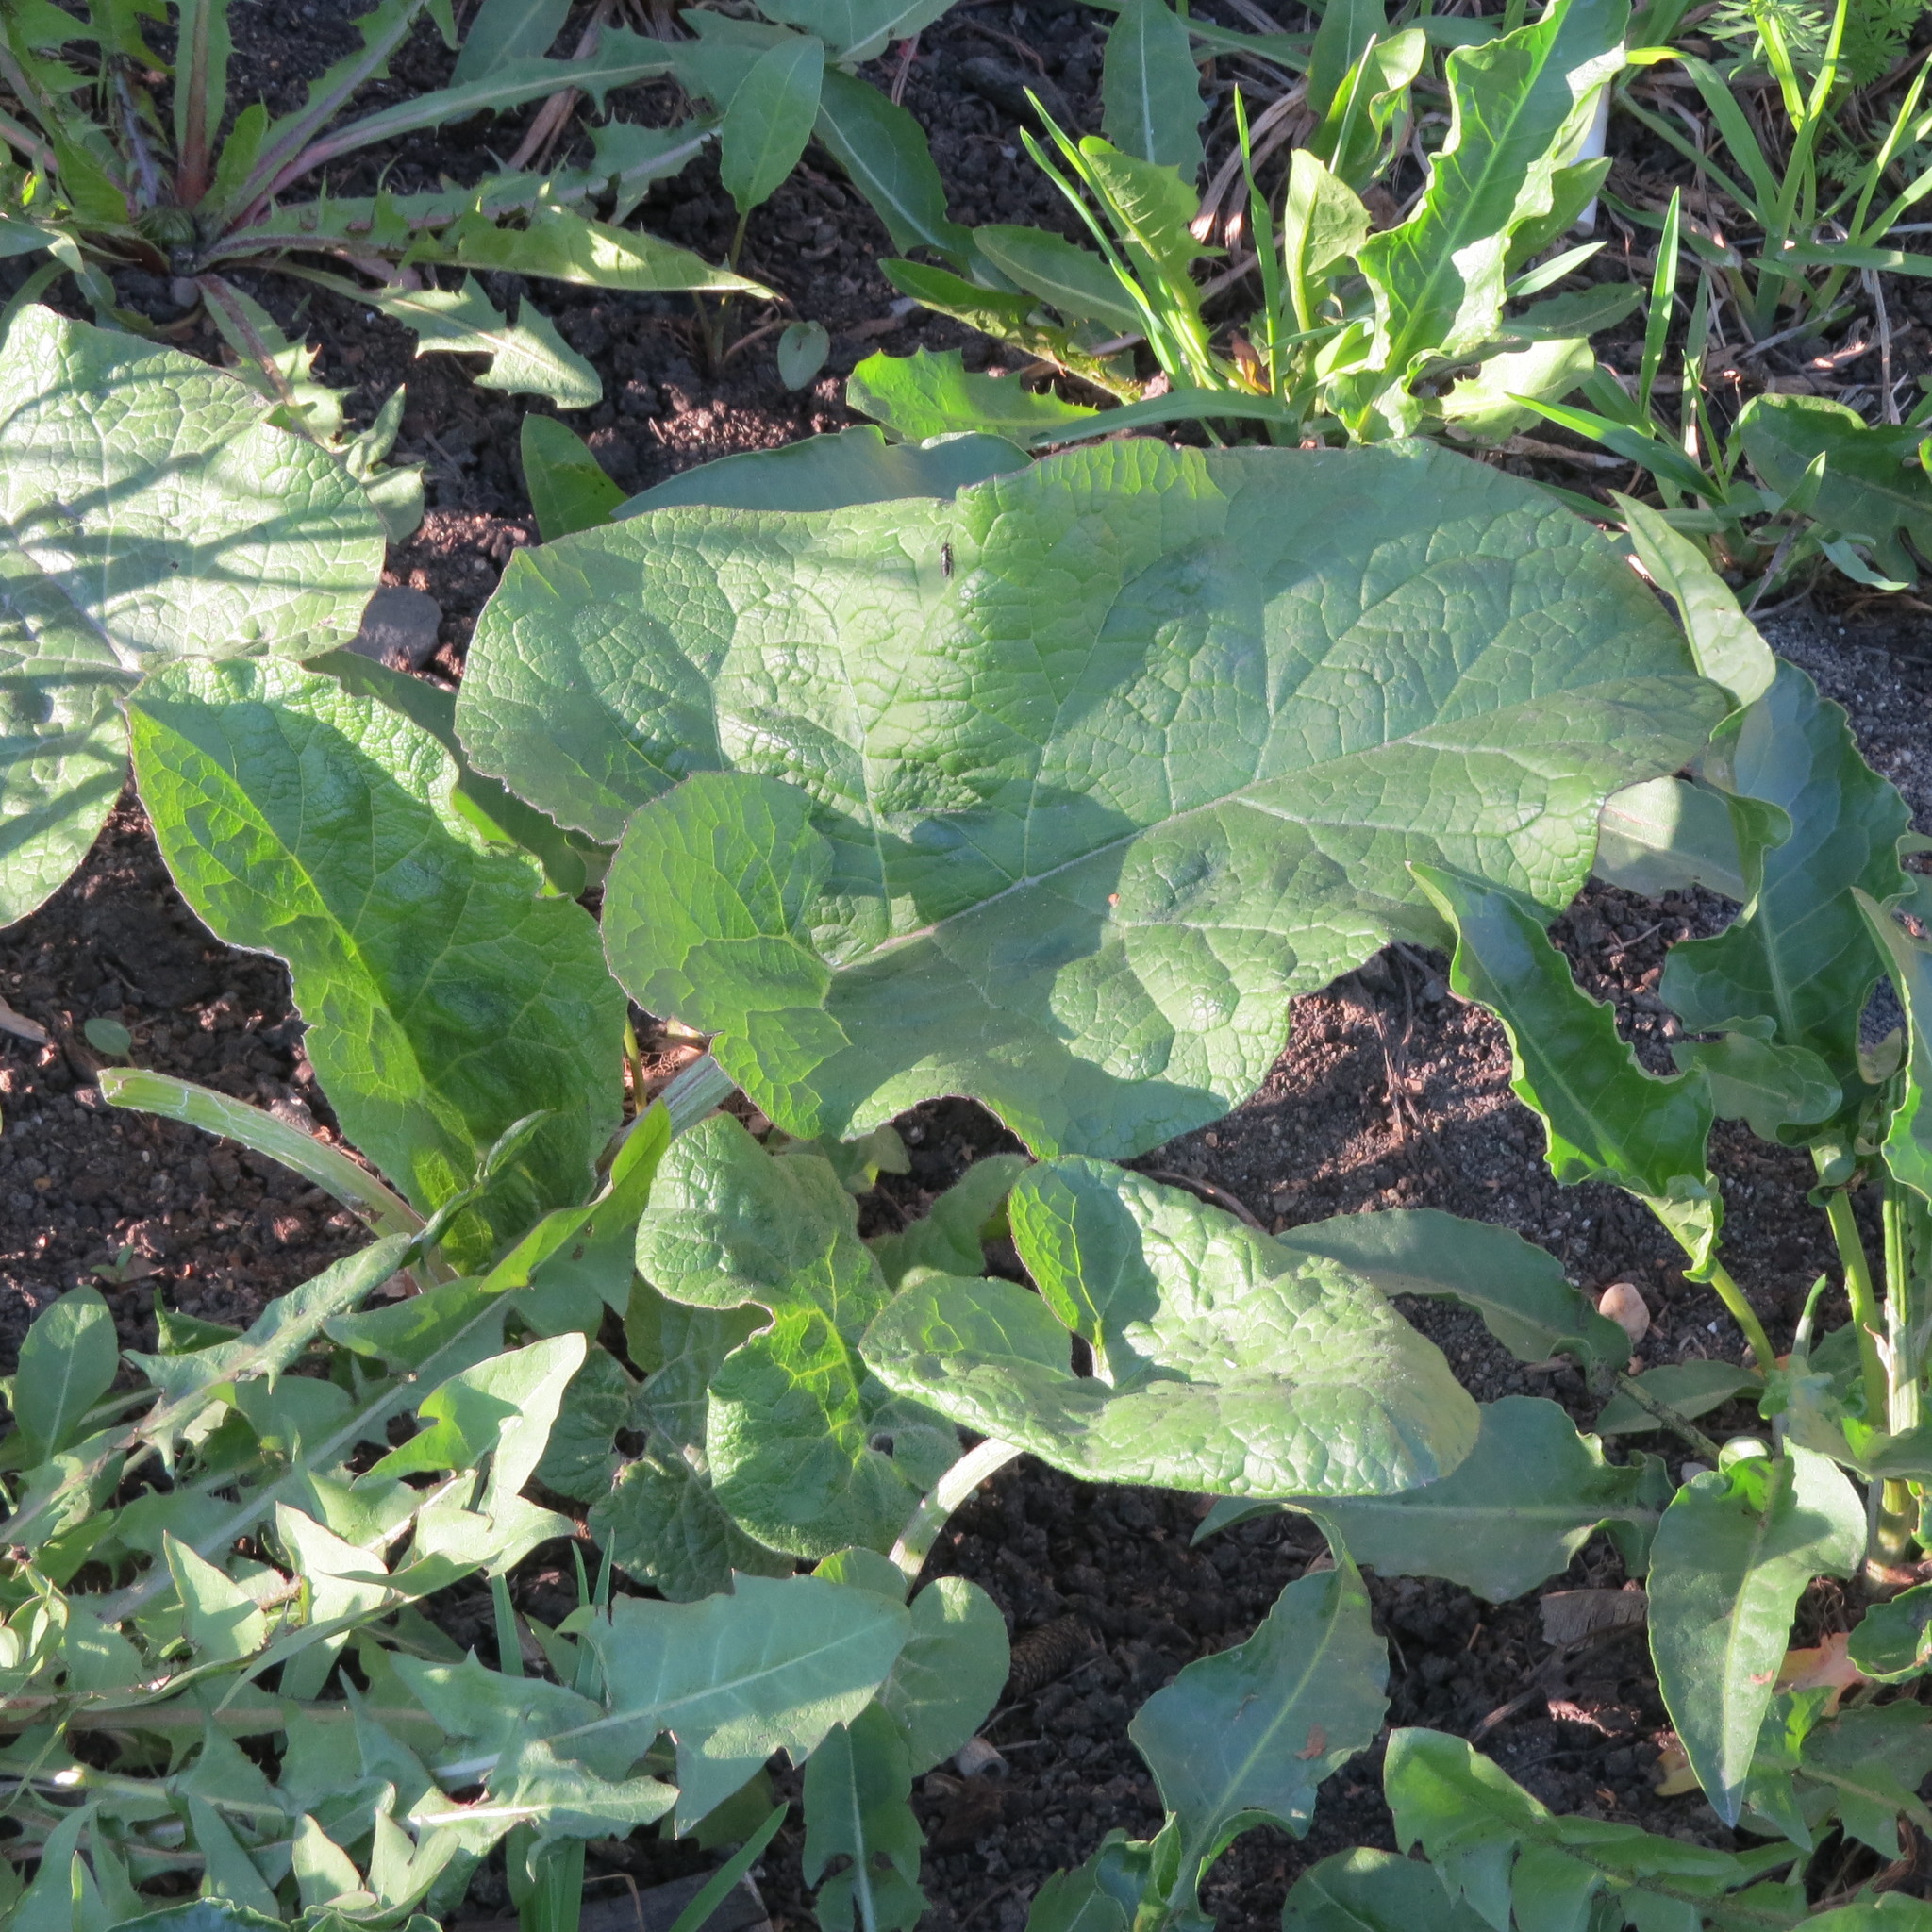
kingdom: Plantae
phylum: Tracheophyta
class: Magnoliopsida
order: Asterales
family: Asteraceae
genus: Arctium
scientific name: Arctium tomentosum
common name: Woolly burdock
